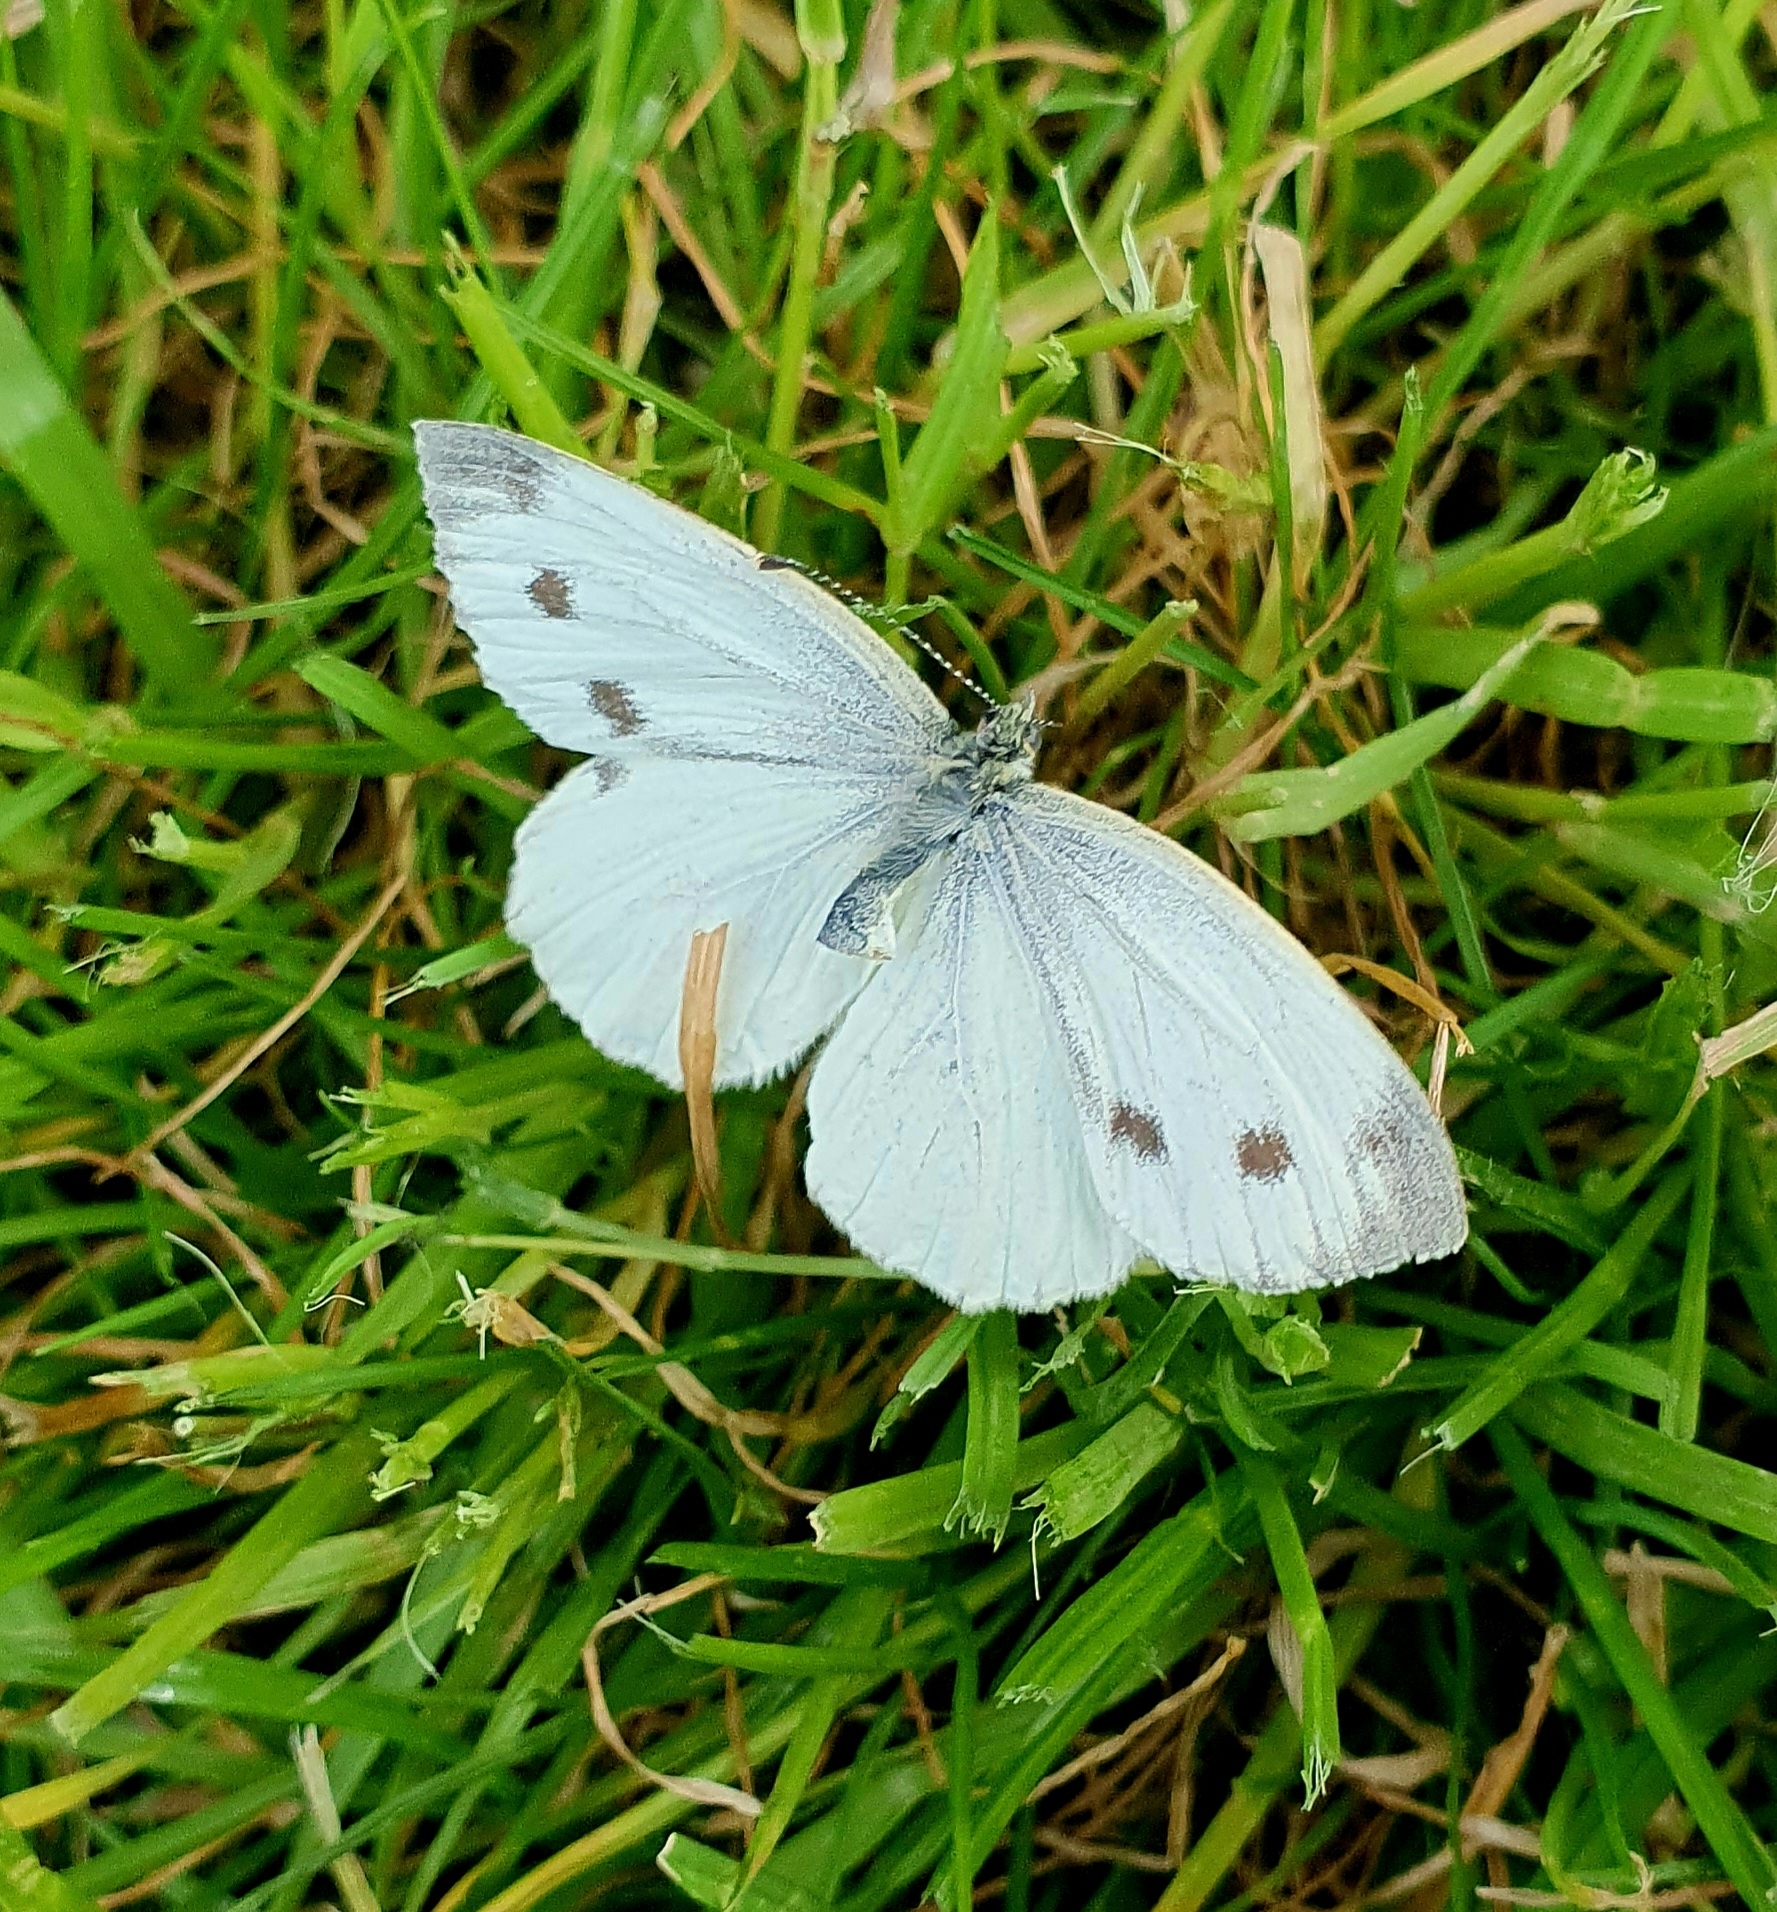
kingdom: Animalia
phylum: Arthropoda
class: Insecta
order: Lepidoptera
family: Pieridae
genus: Pieris
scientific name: Pieris napi
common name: Green-veined white
